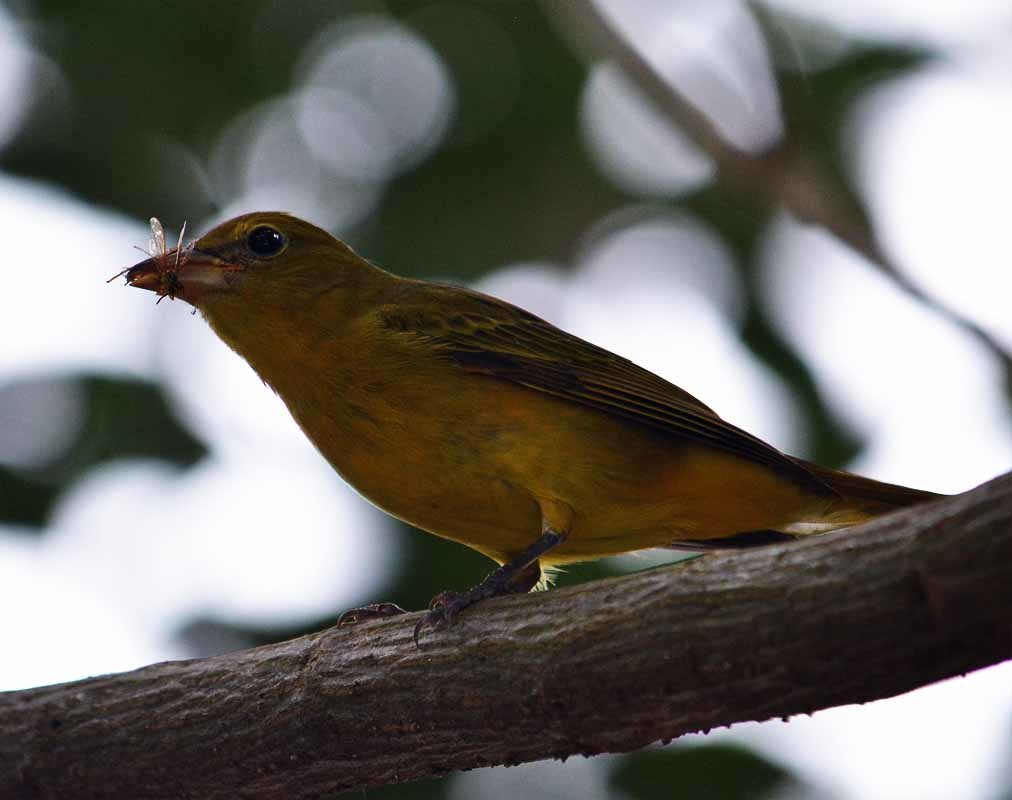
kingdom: Animalia
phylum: Chordata
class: Aves
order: Passeriformes
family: Cardinalidae
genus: Piranga
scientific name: Piranga rubra
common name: Summer tanager
